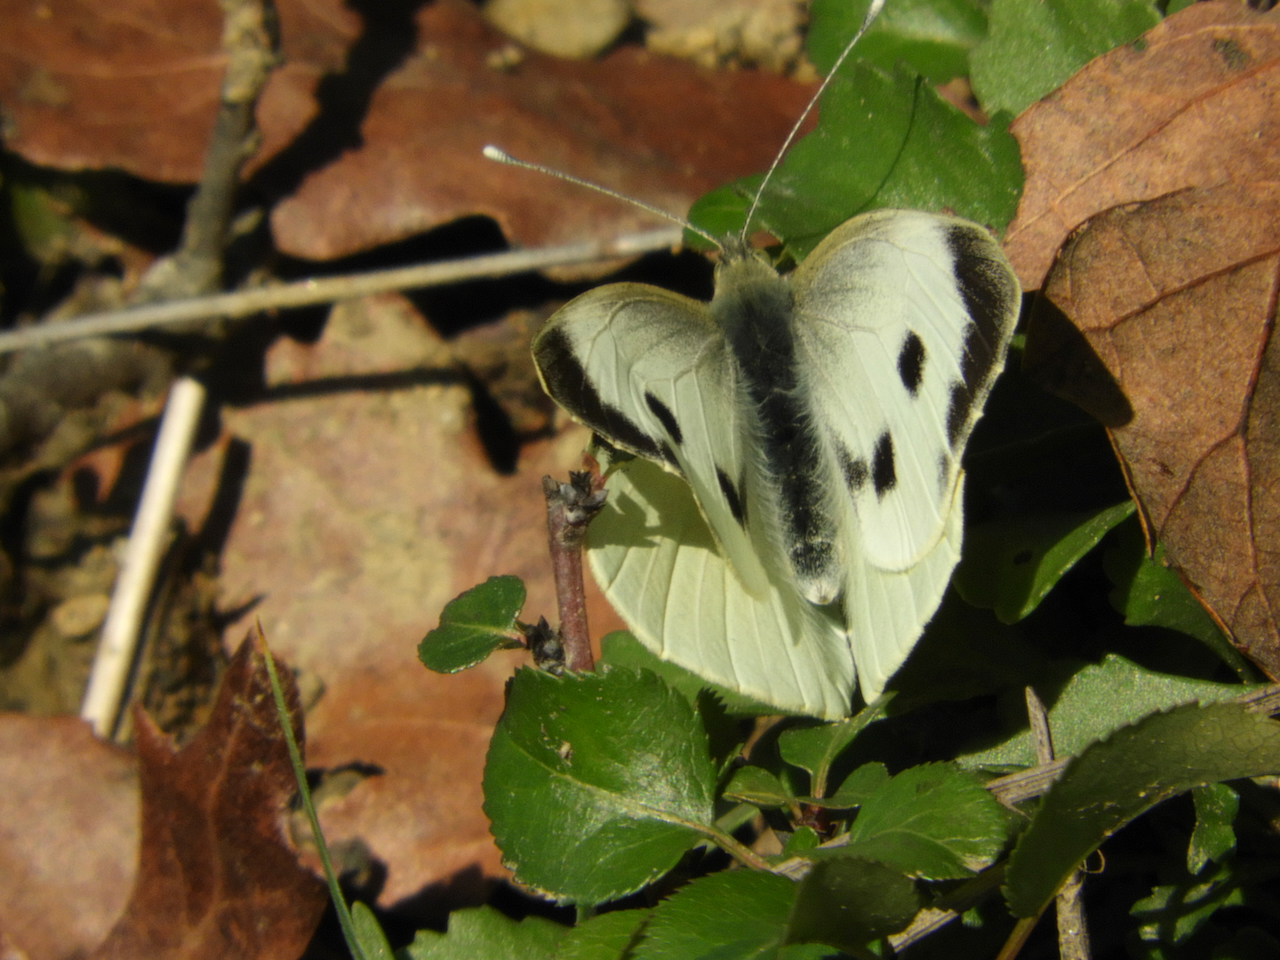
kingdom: Animalia
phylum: Arthropoda
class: Insecta
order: Lepidoptera
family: Pieridae
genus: Pieris
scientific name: Pieris brassicae
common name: Large white
